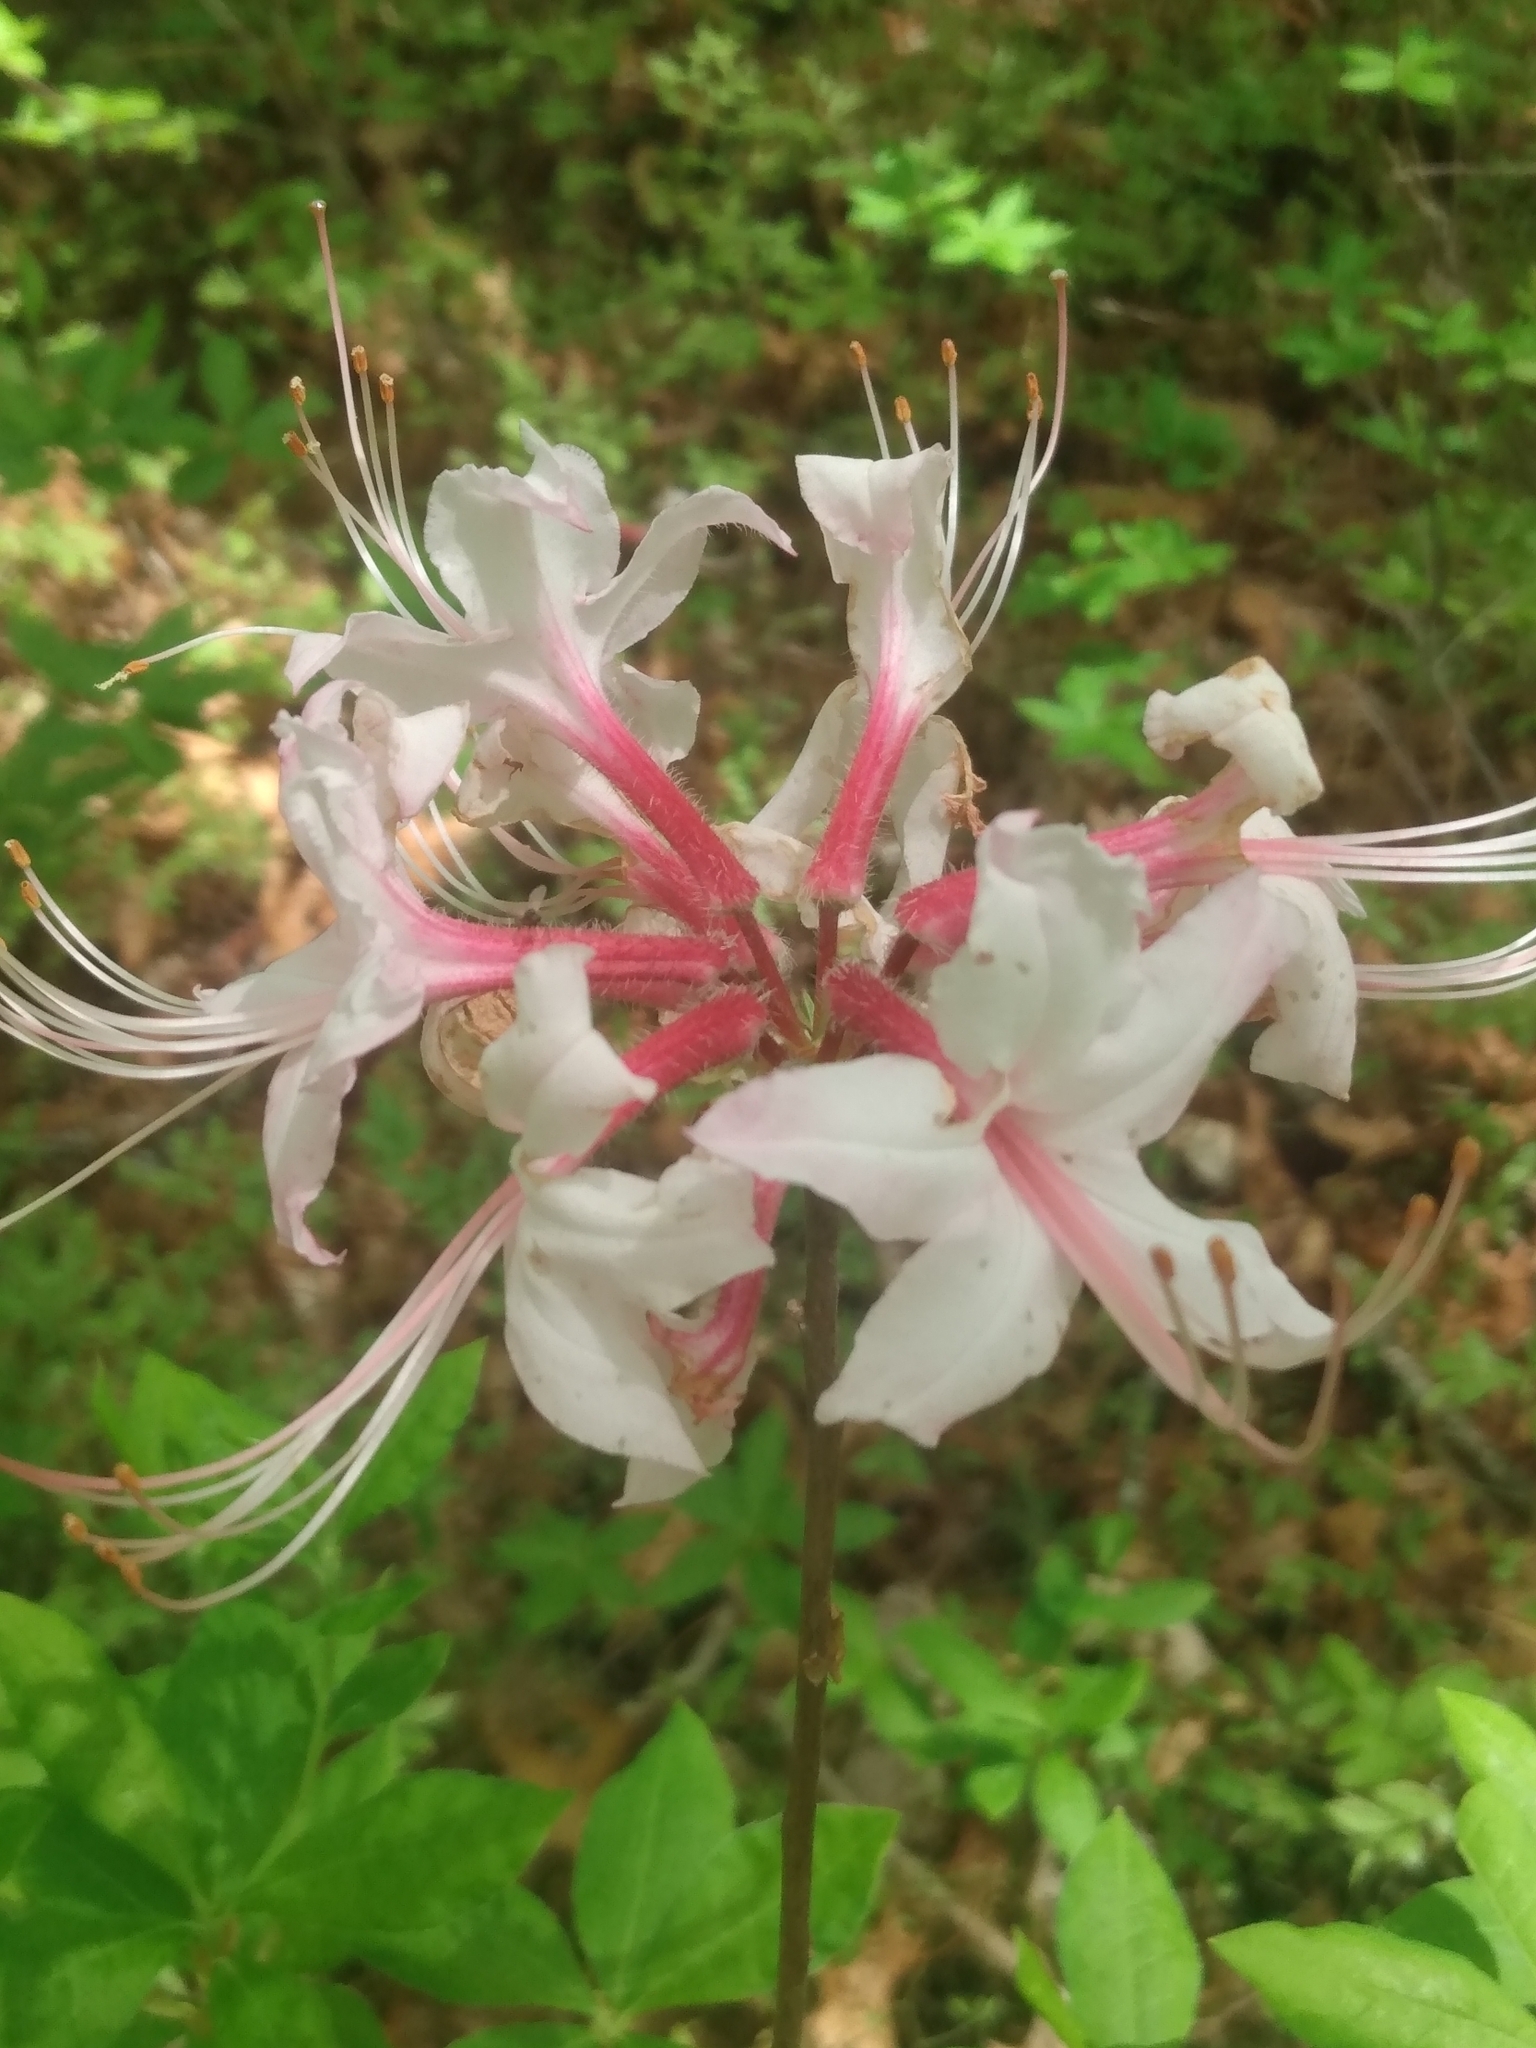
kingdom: Plantae
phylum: Tracheophyta
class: Magnoliopsida
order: Ericales
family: Ericaceae
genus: Rhododendron
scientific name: Rhododendron periclymenoides
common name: Election-pink
